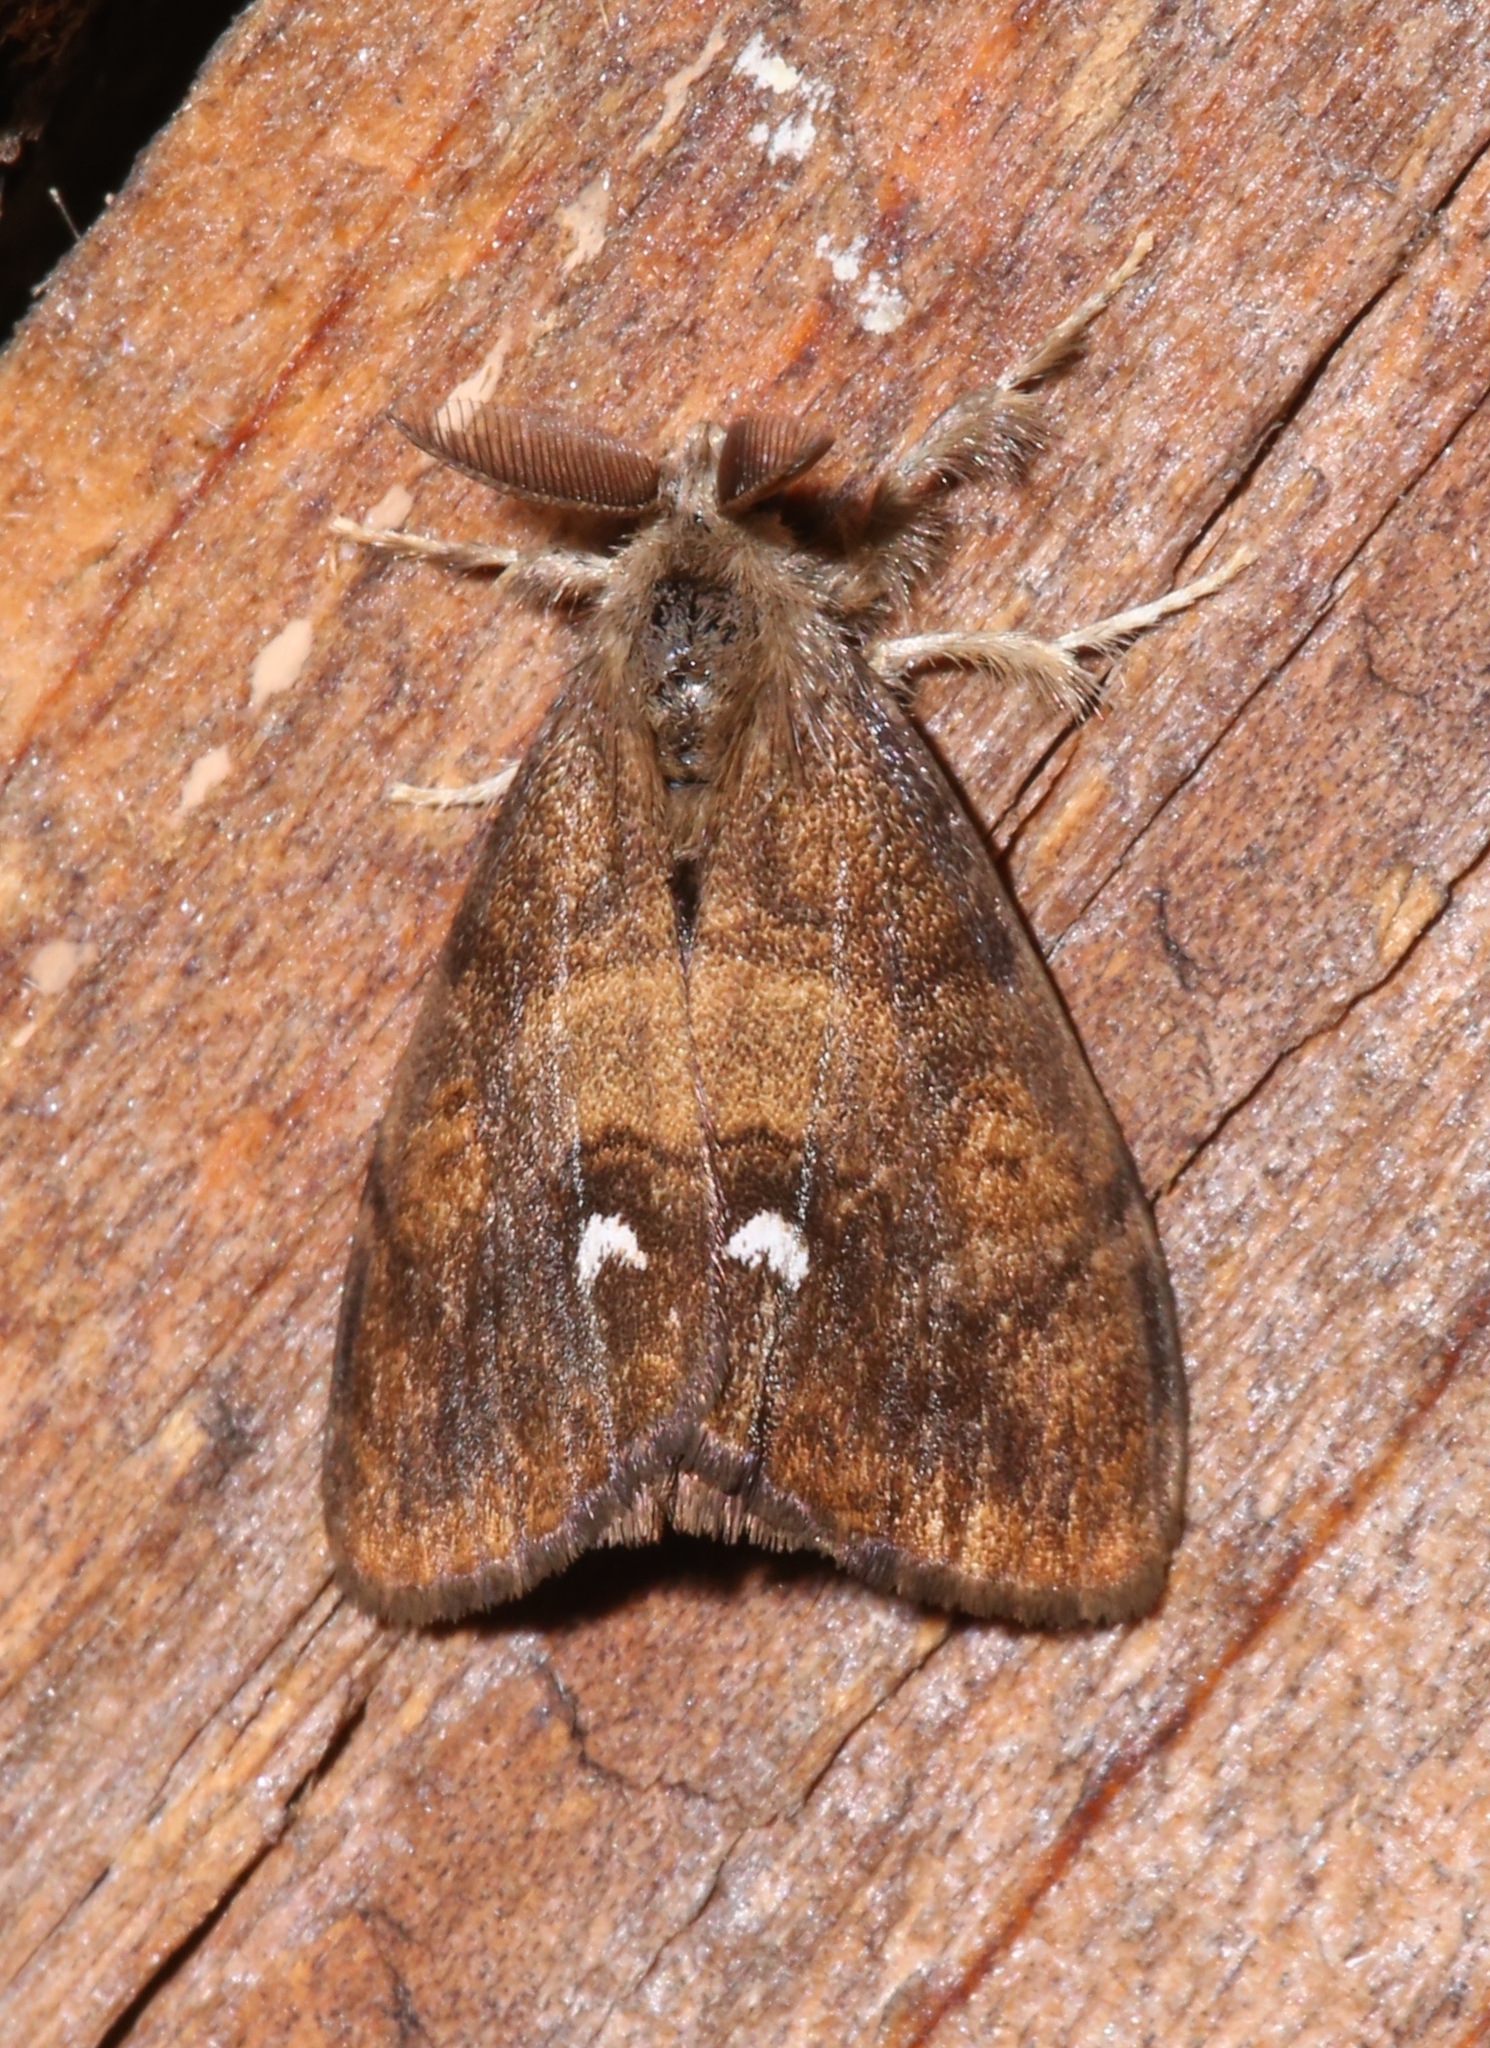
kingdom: Animalia
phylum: Arthropoda
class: Insecta
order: Lepidoptera
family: Erebidae
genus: Orgyia
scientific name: Orgyia antiqua
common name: Vapourer
